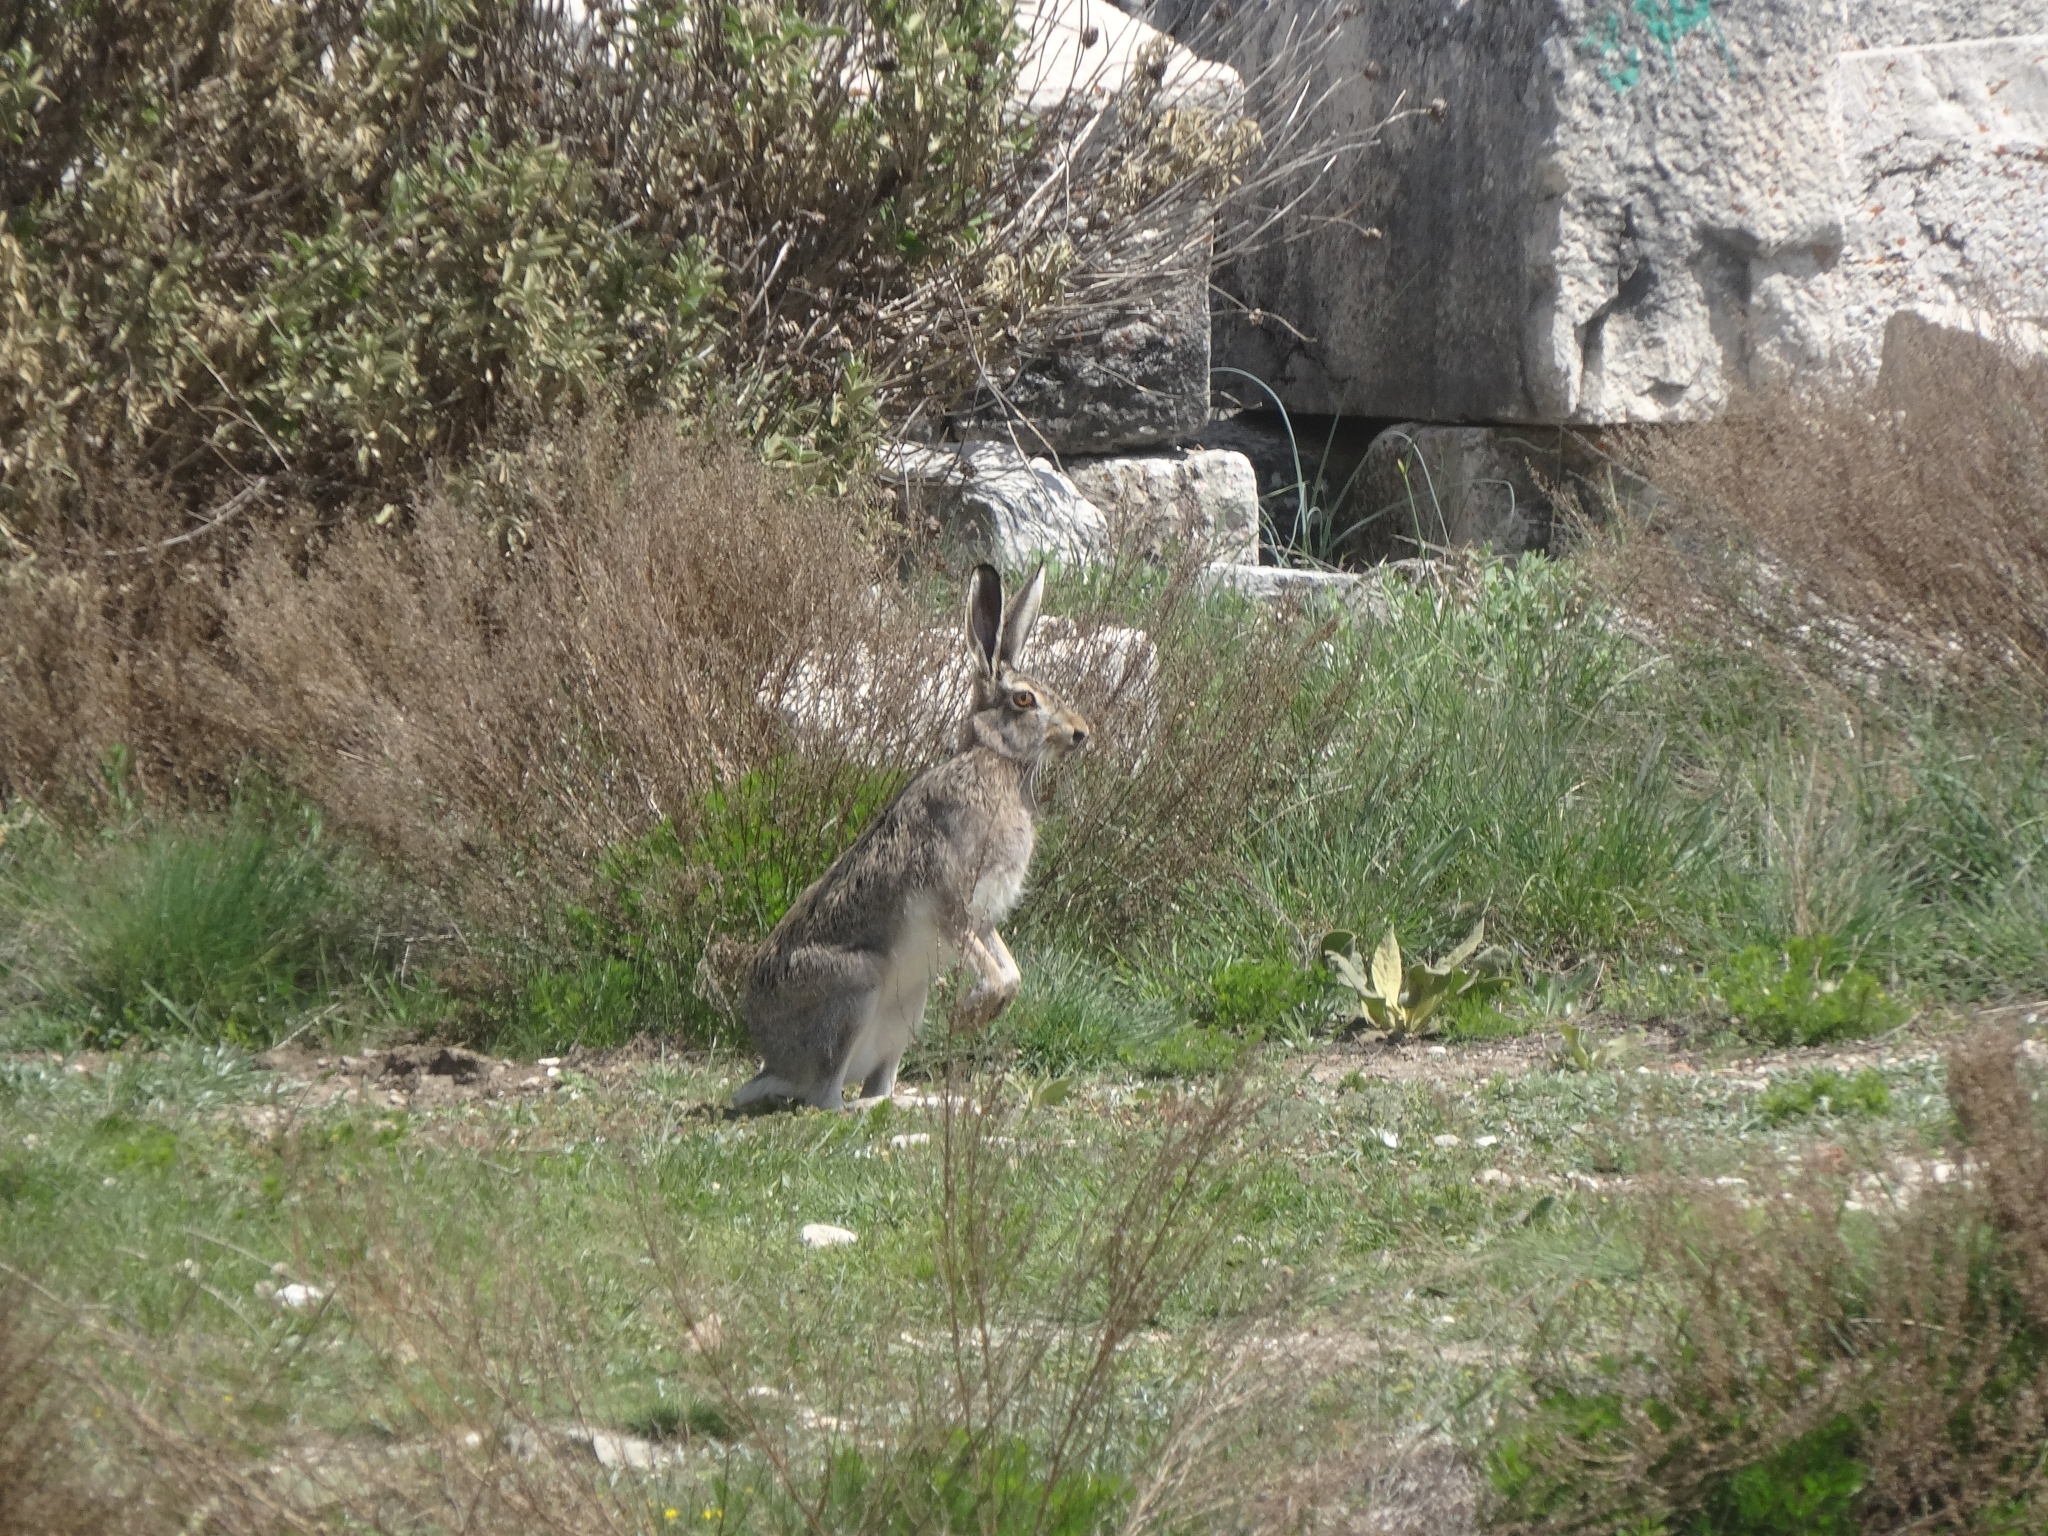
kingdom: Animalia
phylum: Chordata
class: Mammalia
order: Lagomorpha
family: Leporidae
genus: Lepus
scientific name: Lepus europaeus
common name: European hare
